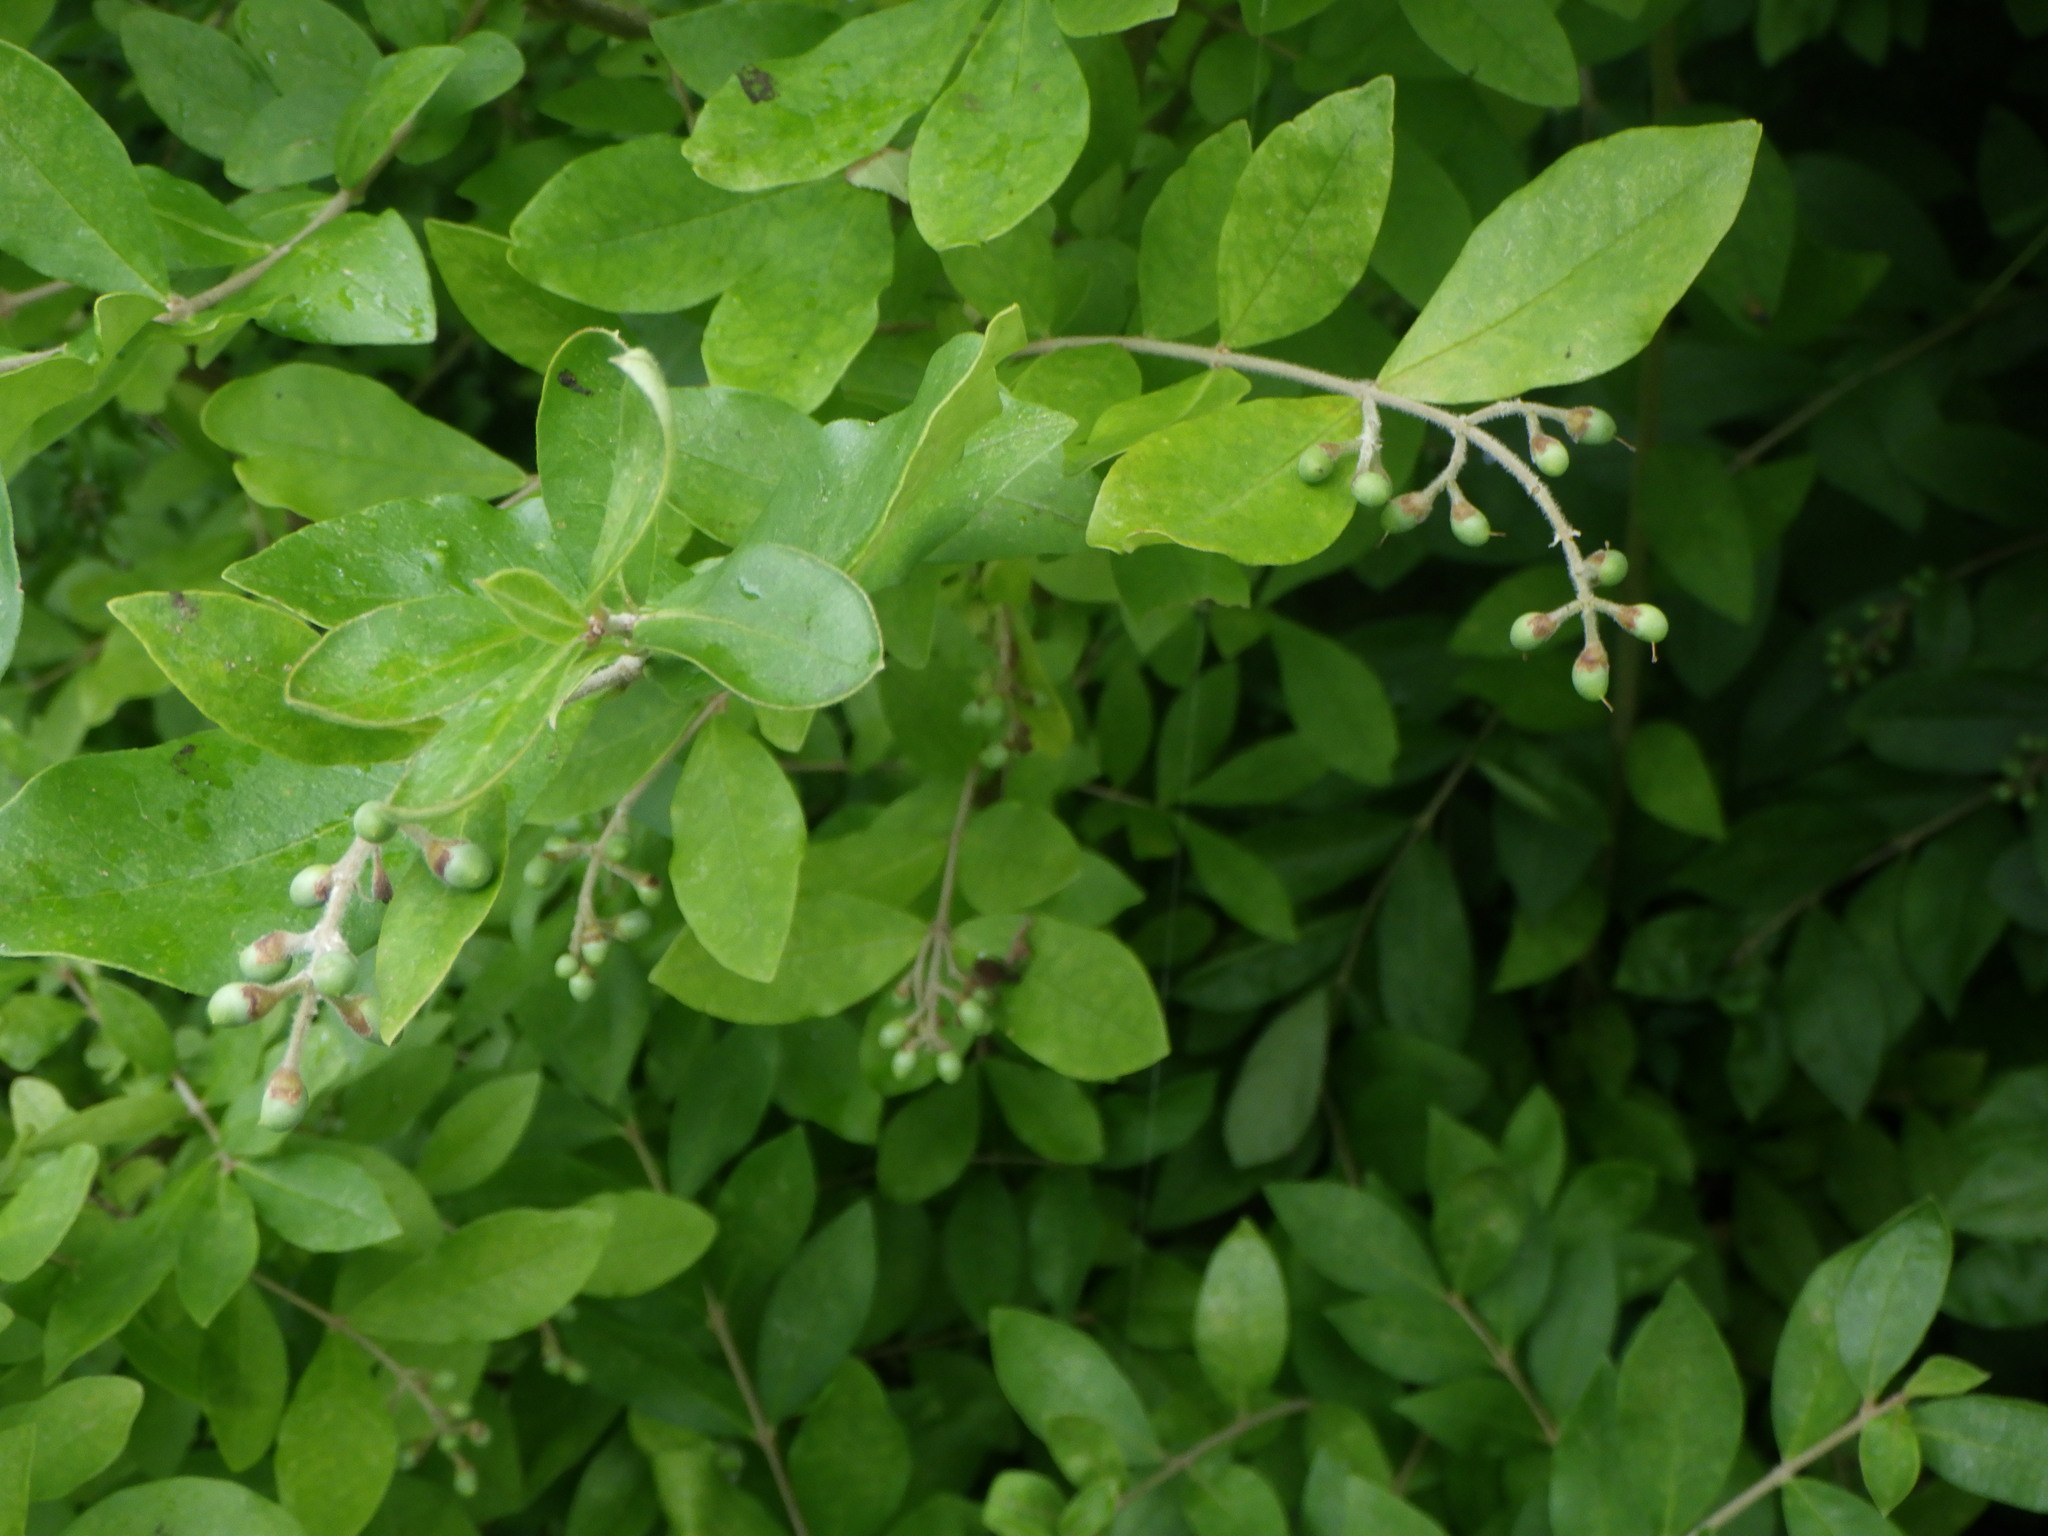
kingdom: Plantae
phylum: Tracheophyta
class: Magnoliopsida
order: Lamiales
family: Oleaceae
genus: Ligustrum
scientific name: Ligustrum obtusifolium
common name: Border privet
